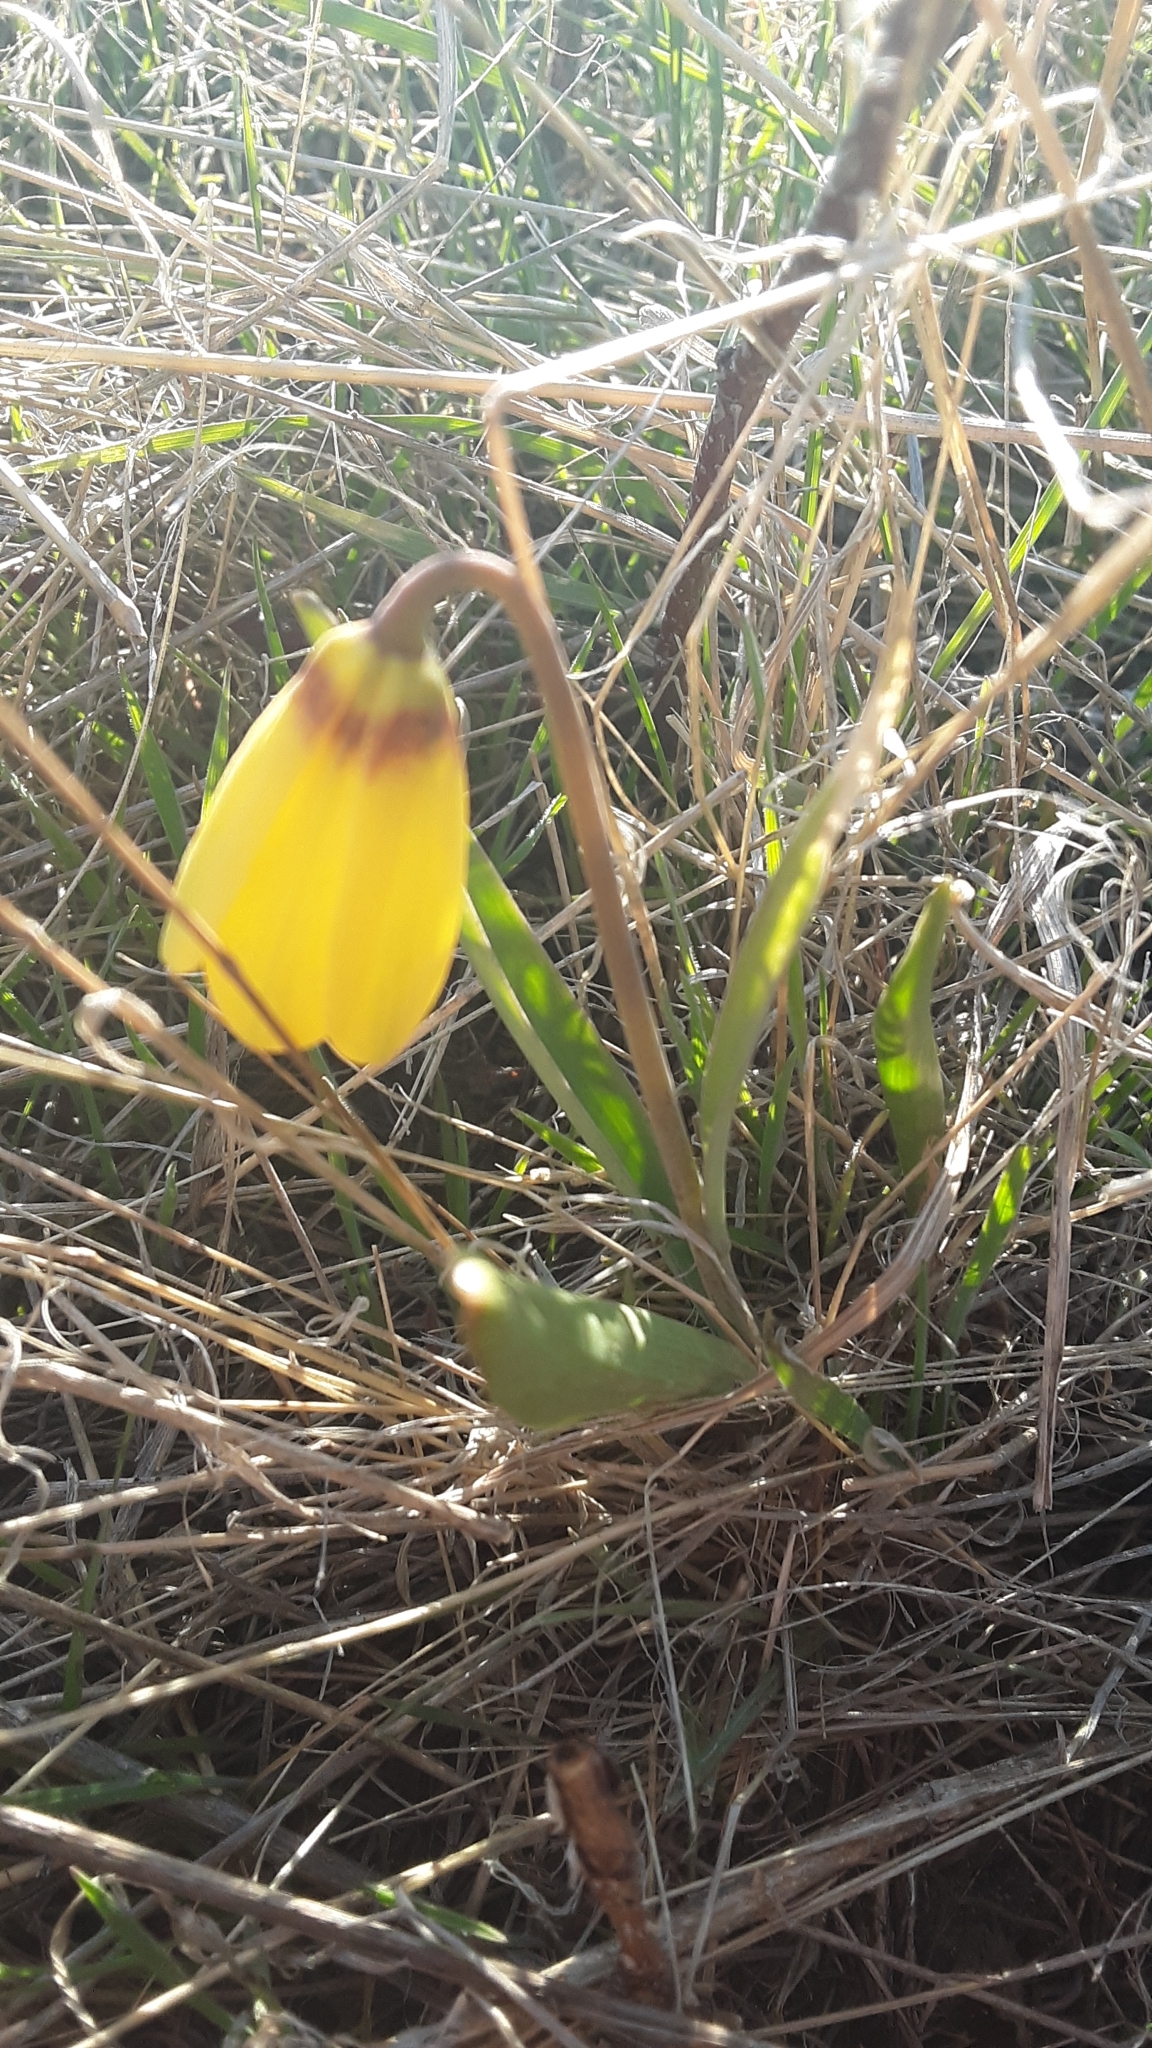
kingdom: Plantae
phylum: Tracheophyta
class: Liliopsida
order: Liliales
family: Liliaceae
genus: Fritillaria
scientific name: Fritillaria pudica
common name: Yellow fritillary
